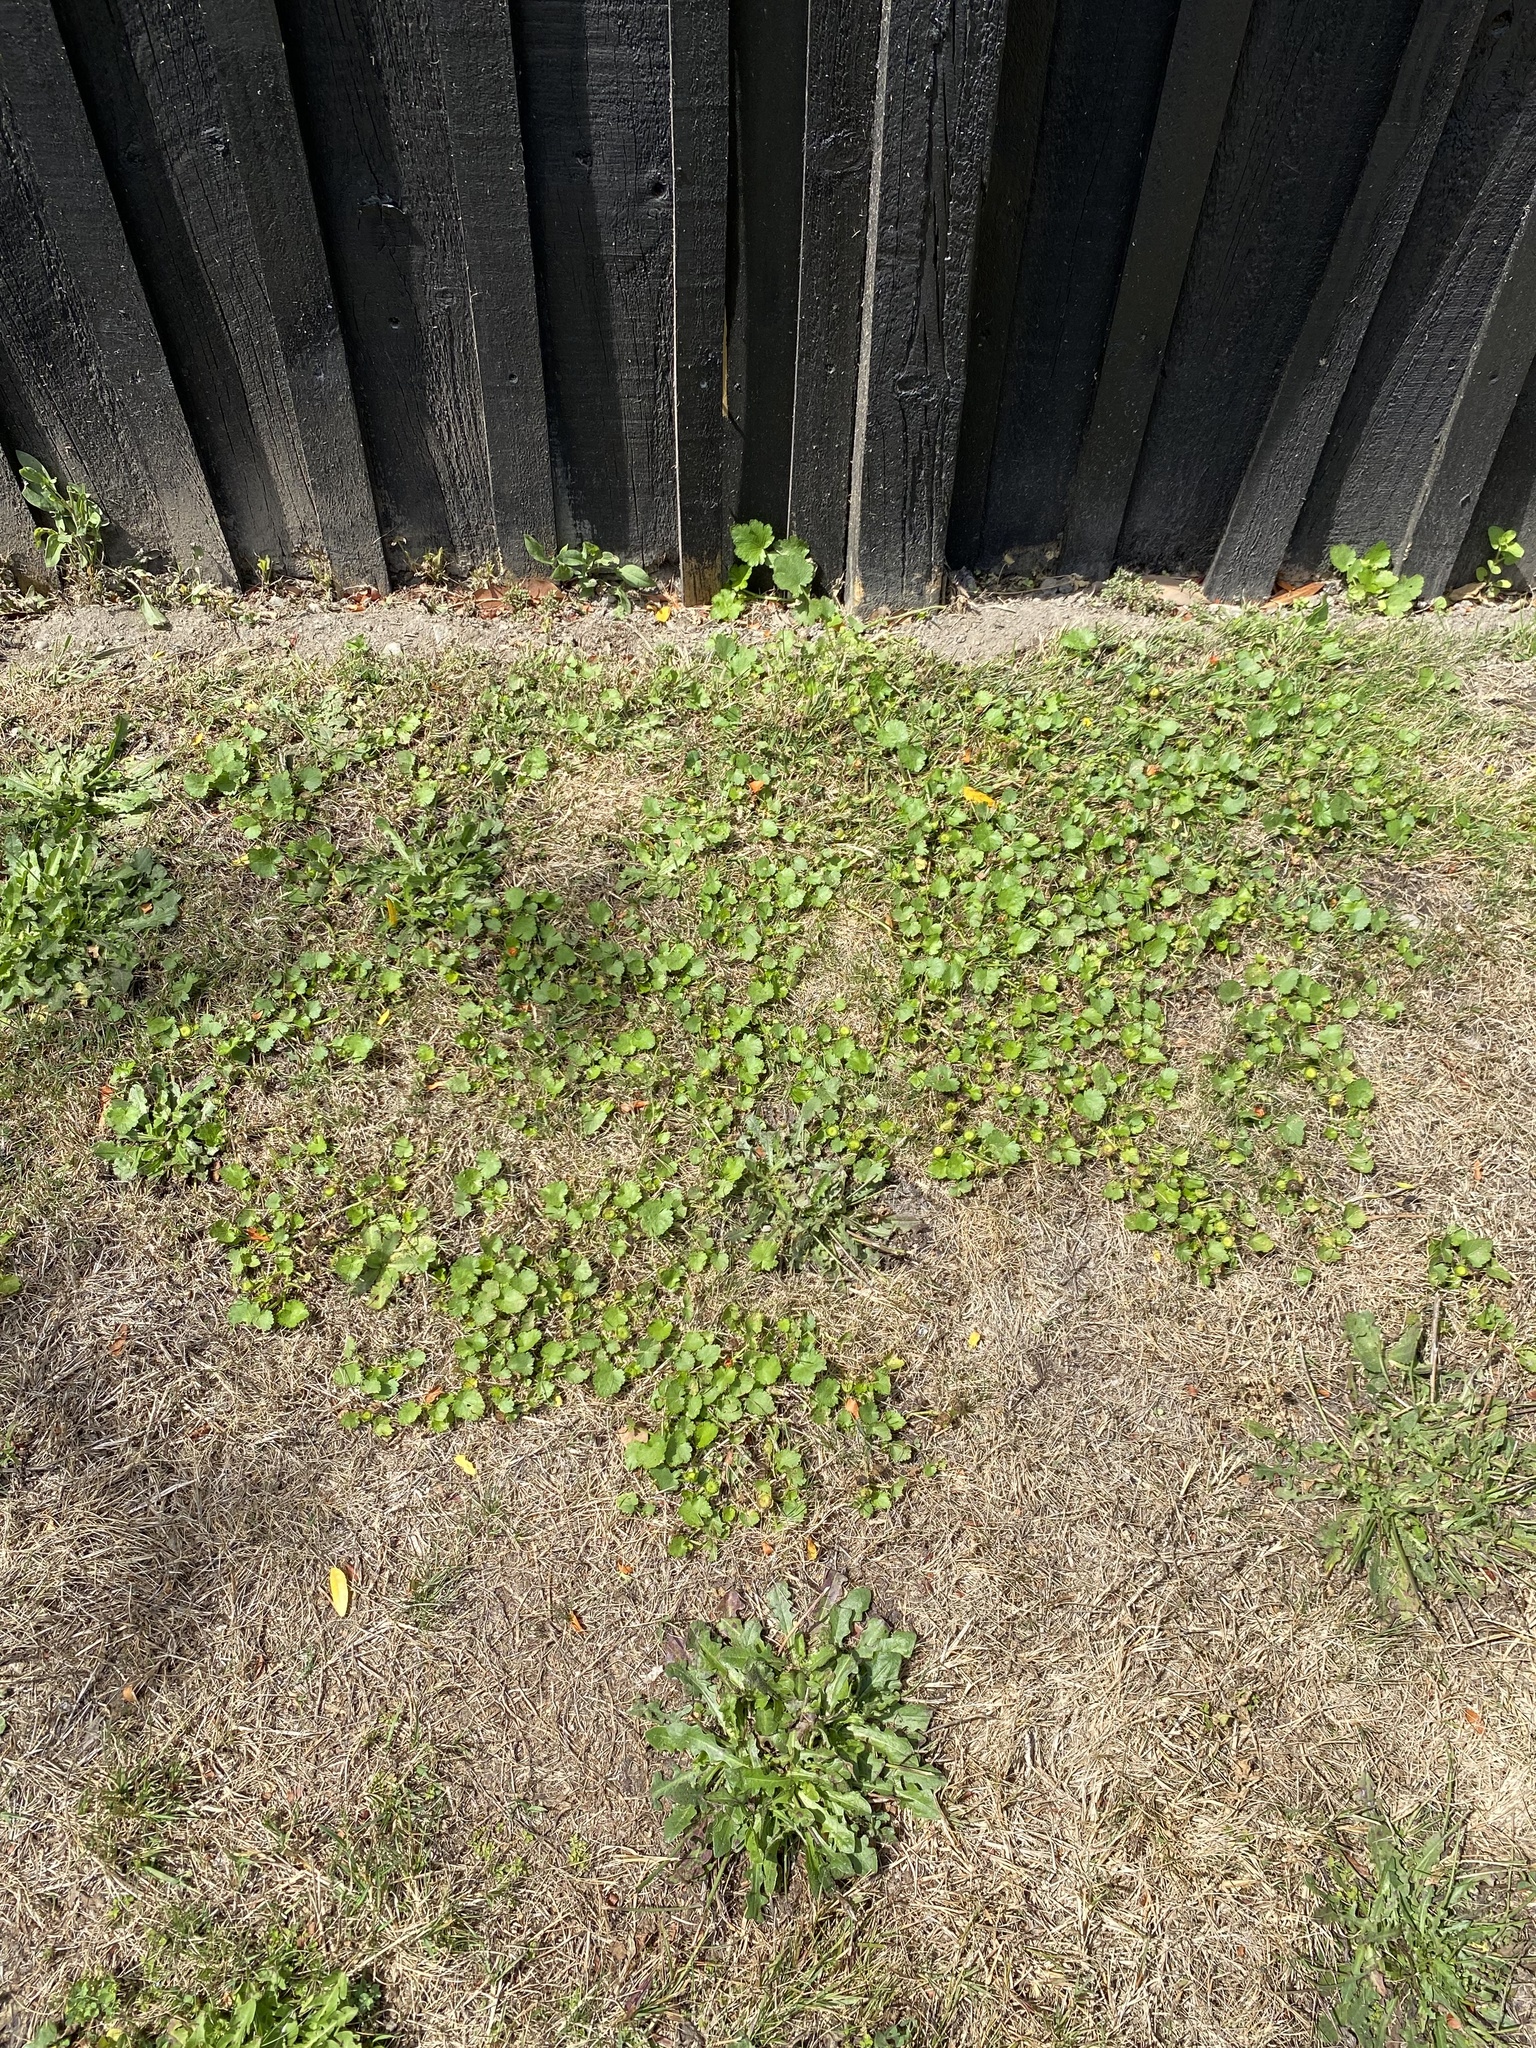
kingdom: Plantae
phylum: Tracheophyta
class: Magnoliopsida
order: Malvales
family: Malvaceae
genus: Modiola
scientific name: Modiola caroliniana
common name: Carolina bristlemallow
